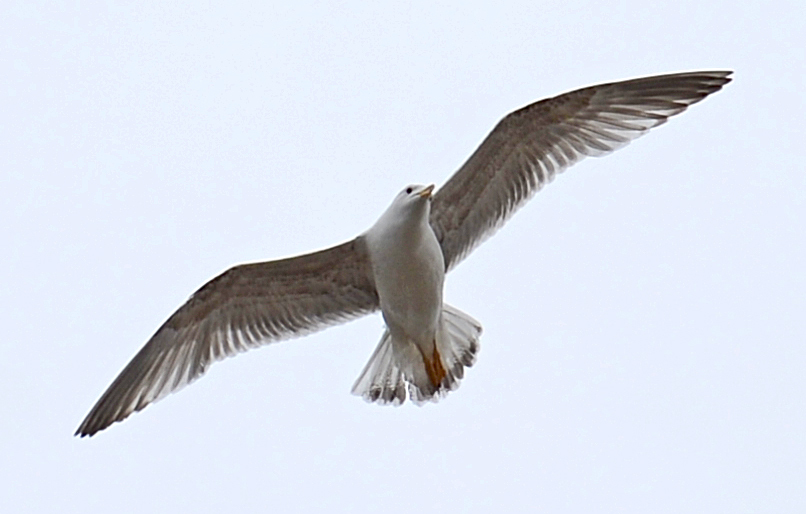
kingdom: Animalia
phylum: Chordata
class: Aves
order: Charadriiformes
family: Laridae
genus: Larus
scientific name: Larus canus
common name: Mew gull
